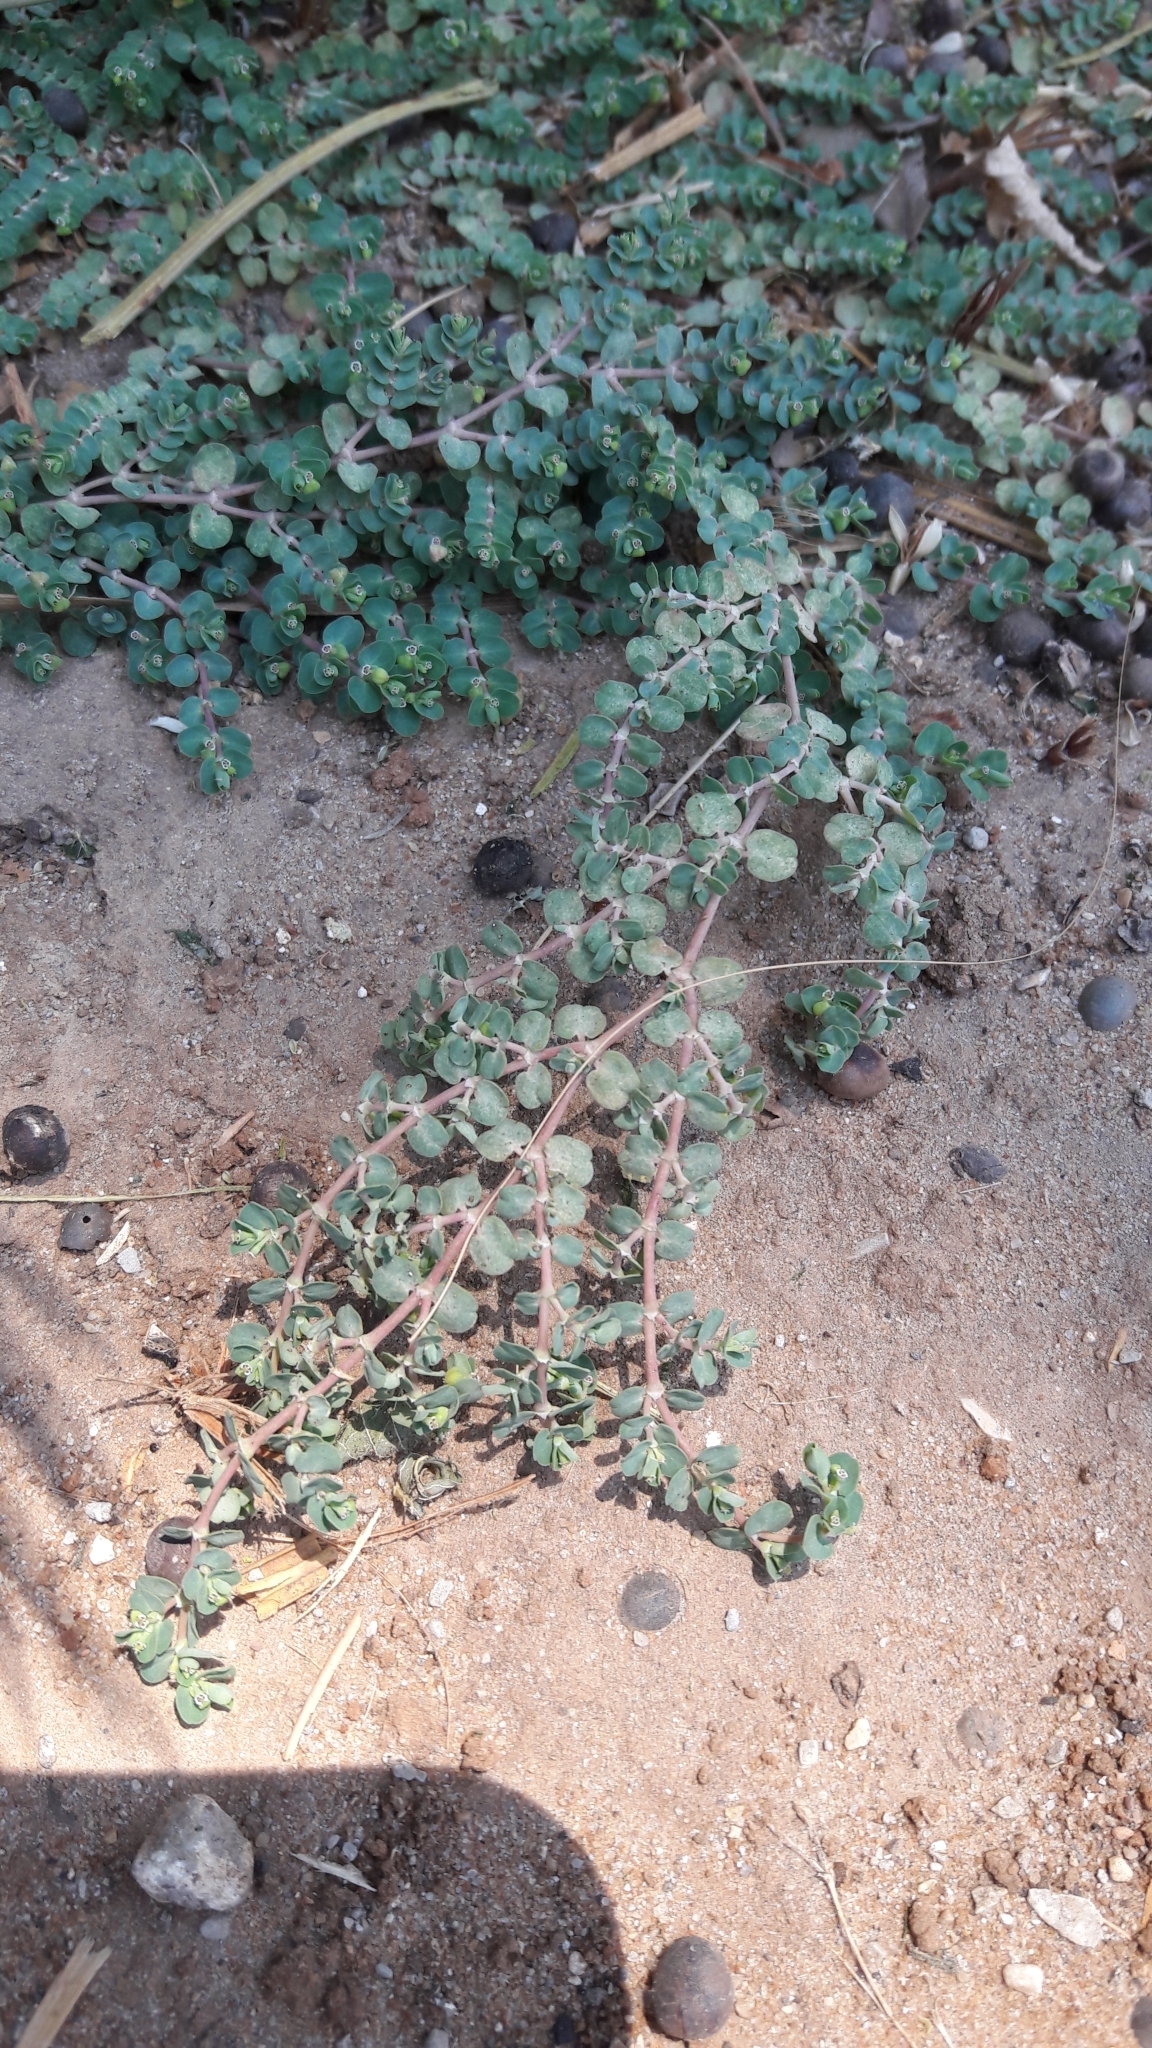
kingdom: Plantae
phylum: Tracheophyta
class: Magnoliopsida
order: Malpighiales
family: Euphorbiaceae
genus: Euphorbia
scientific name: Euphorbia serpens
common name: Matted sandmat
